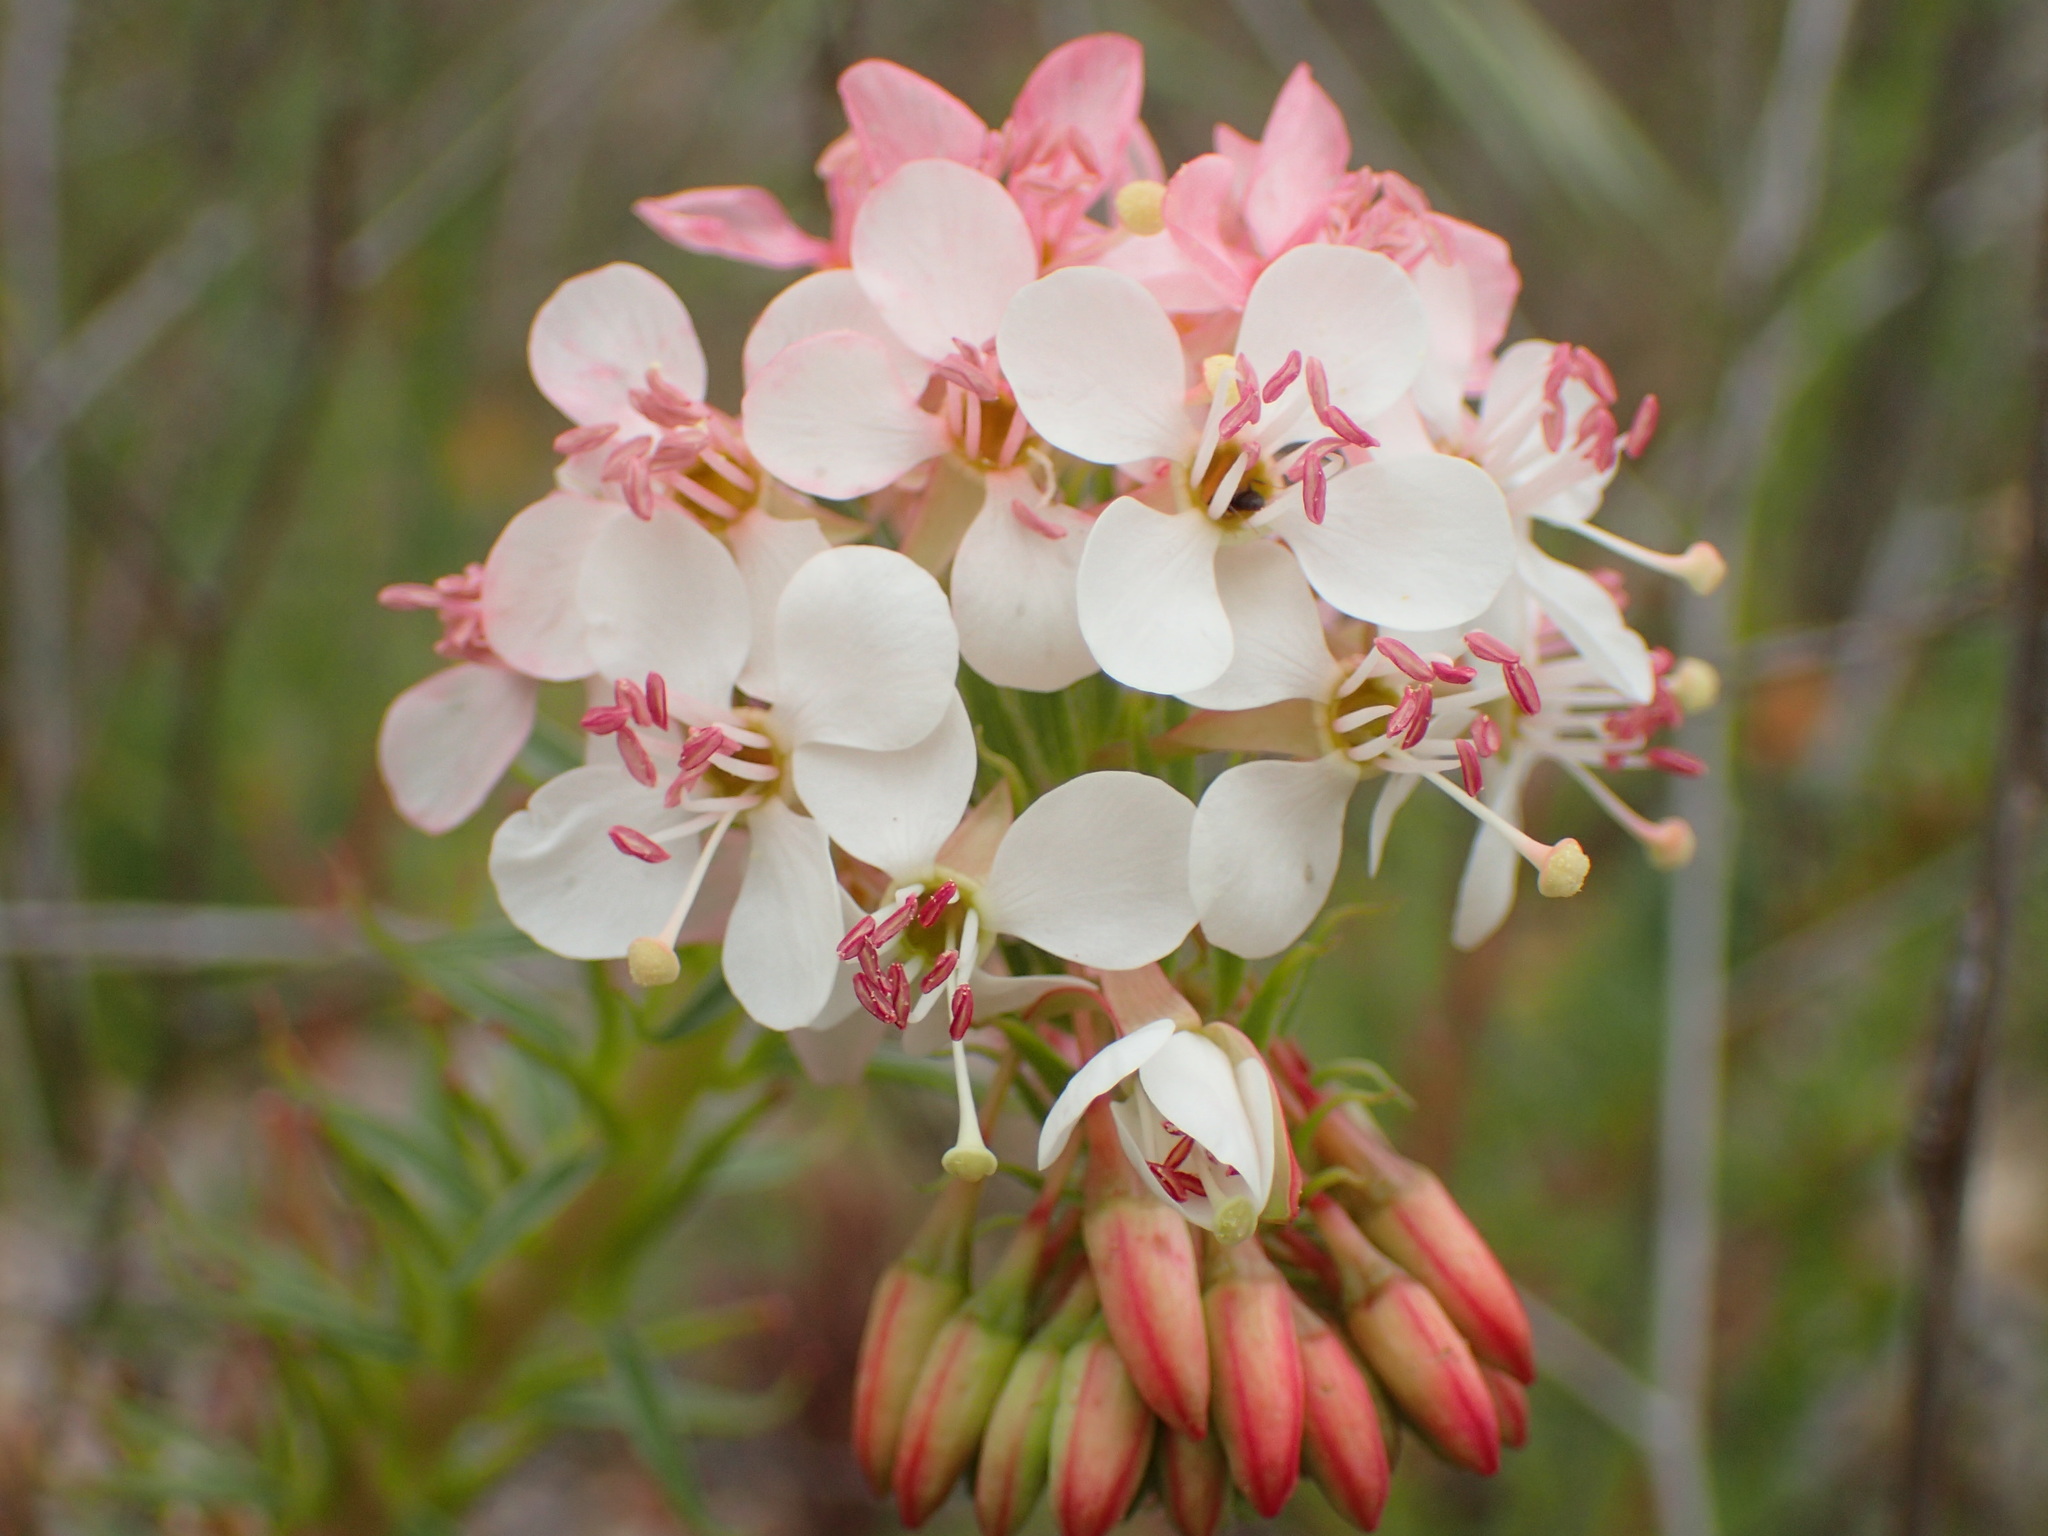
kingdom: Plantae
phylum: Tracheophyta
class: Magnoliopsida
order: Myrtales
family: Onagraceae
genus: Eremothera
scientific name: Eremothera boothii
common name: Booth's evening primrose
